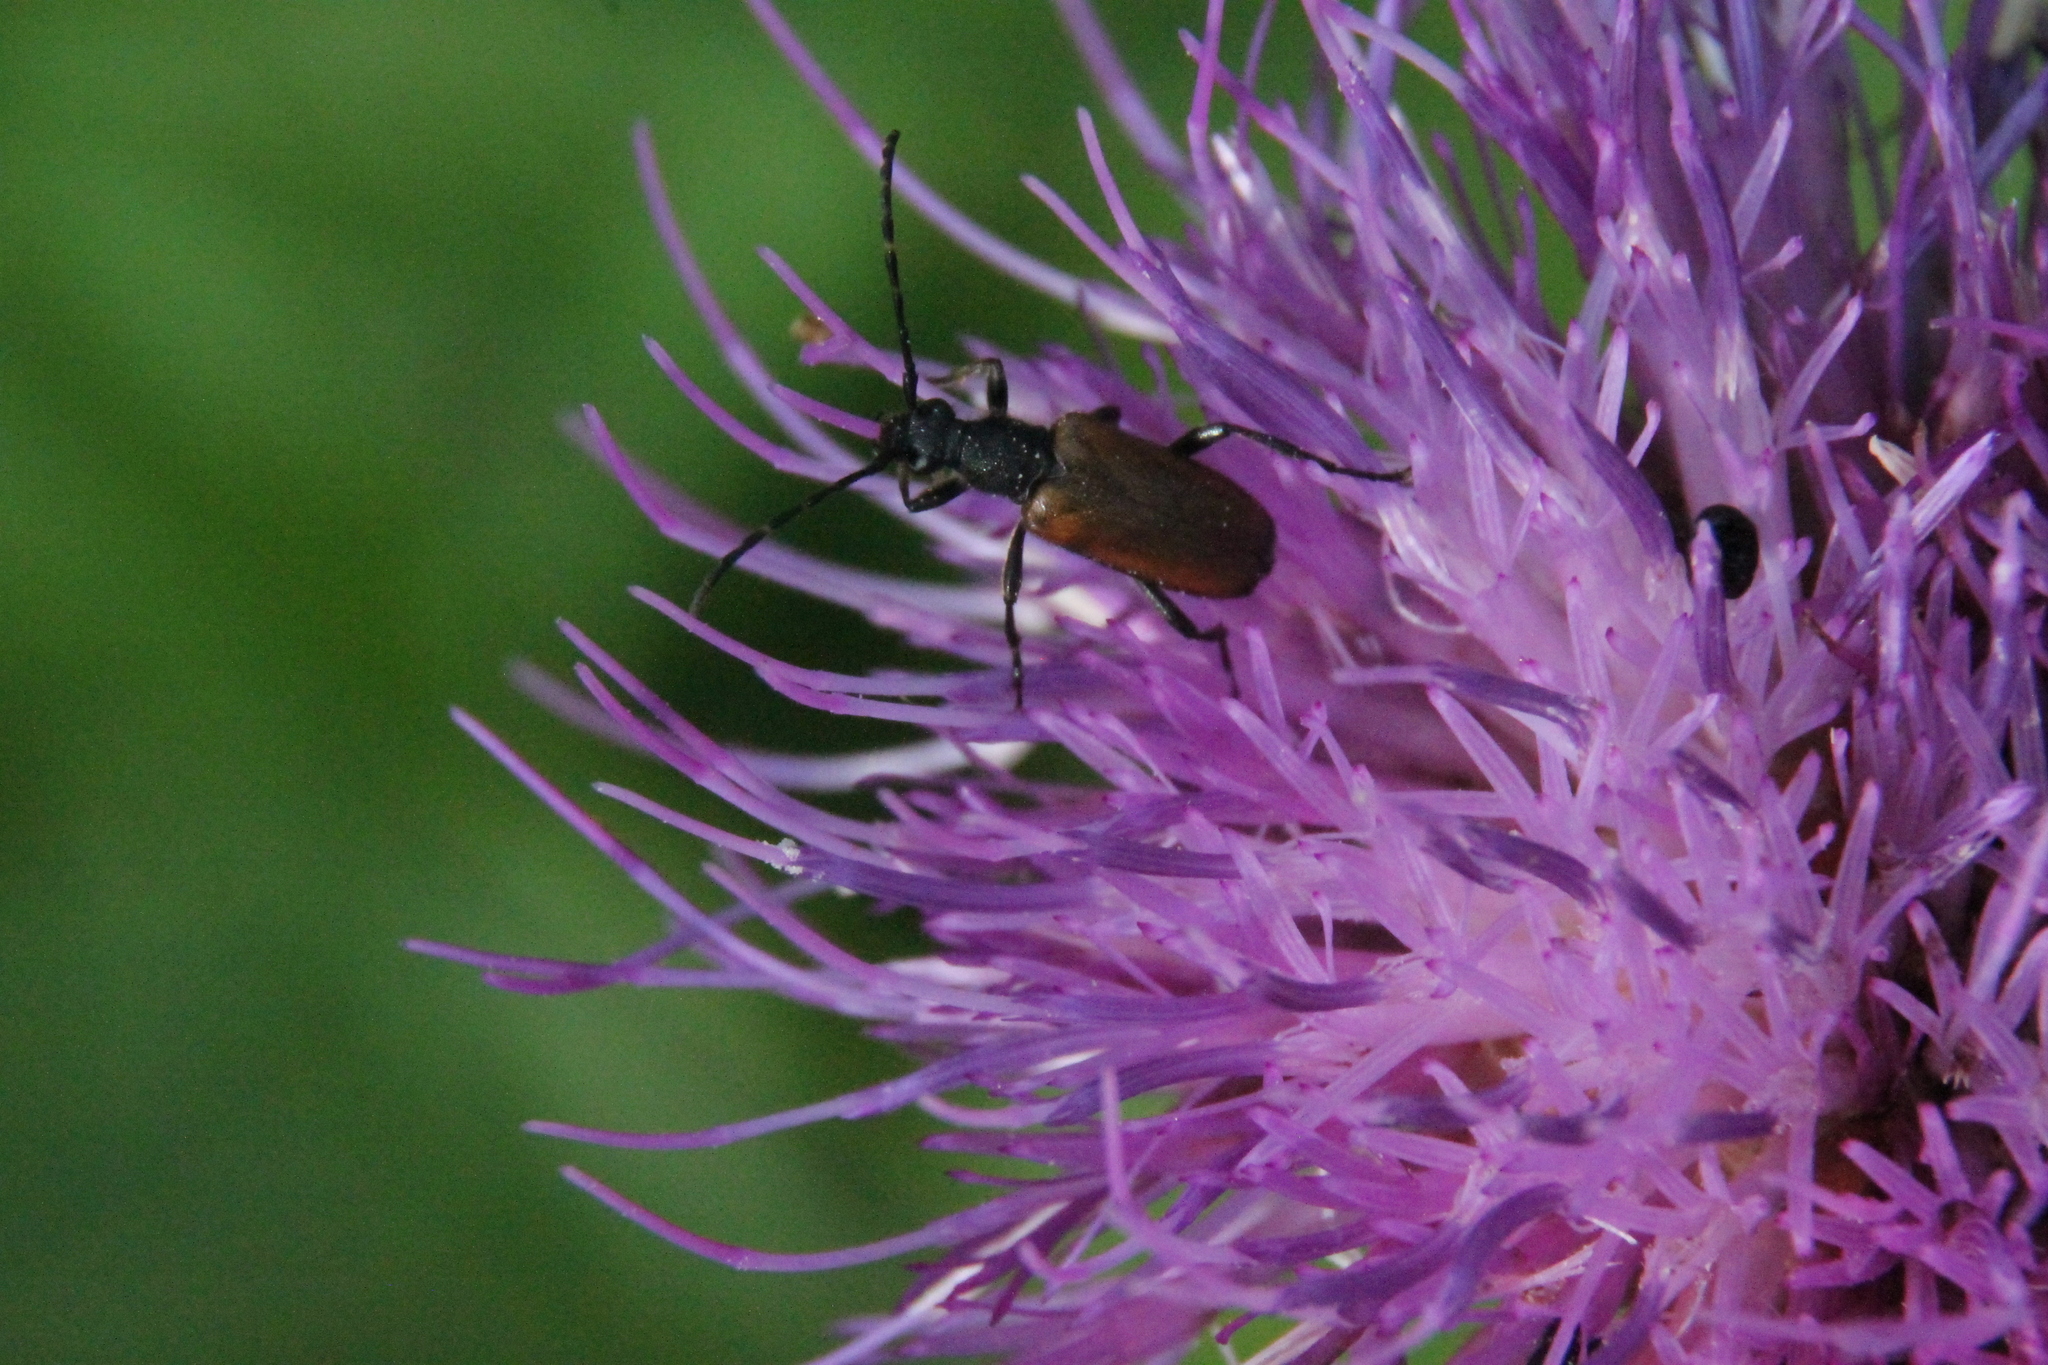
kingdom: Animalia
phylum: Arthropoda
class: Insecta
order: Coleoptera
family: Cerambycidae
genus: Paracorymbia
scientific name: Paracorymbia maculicornis
